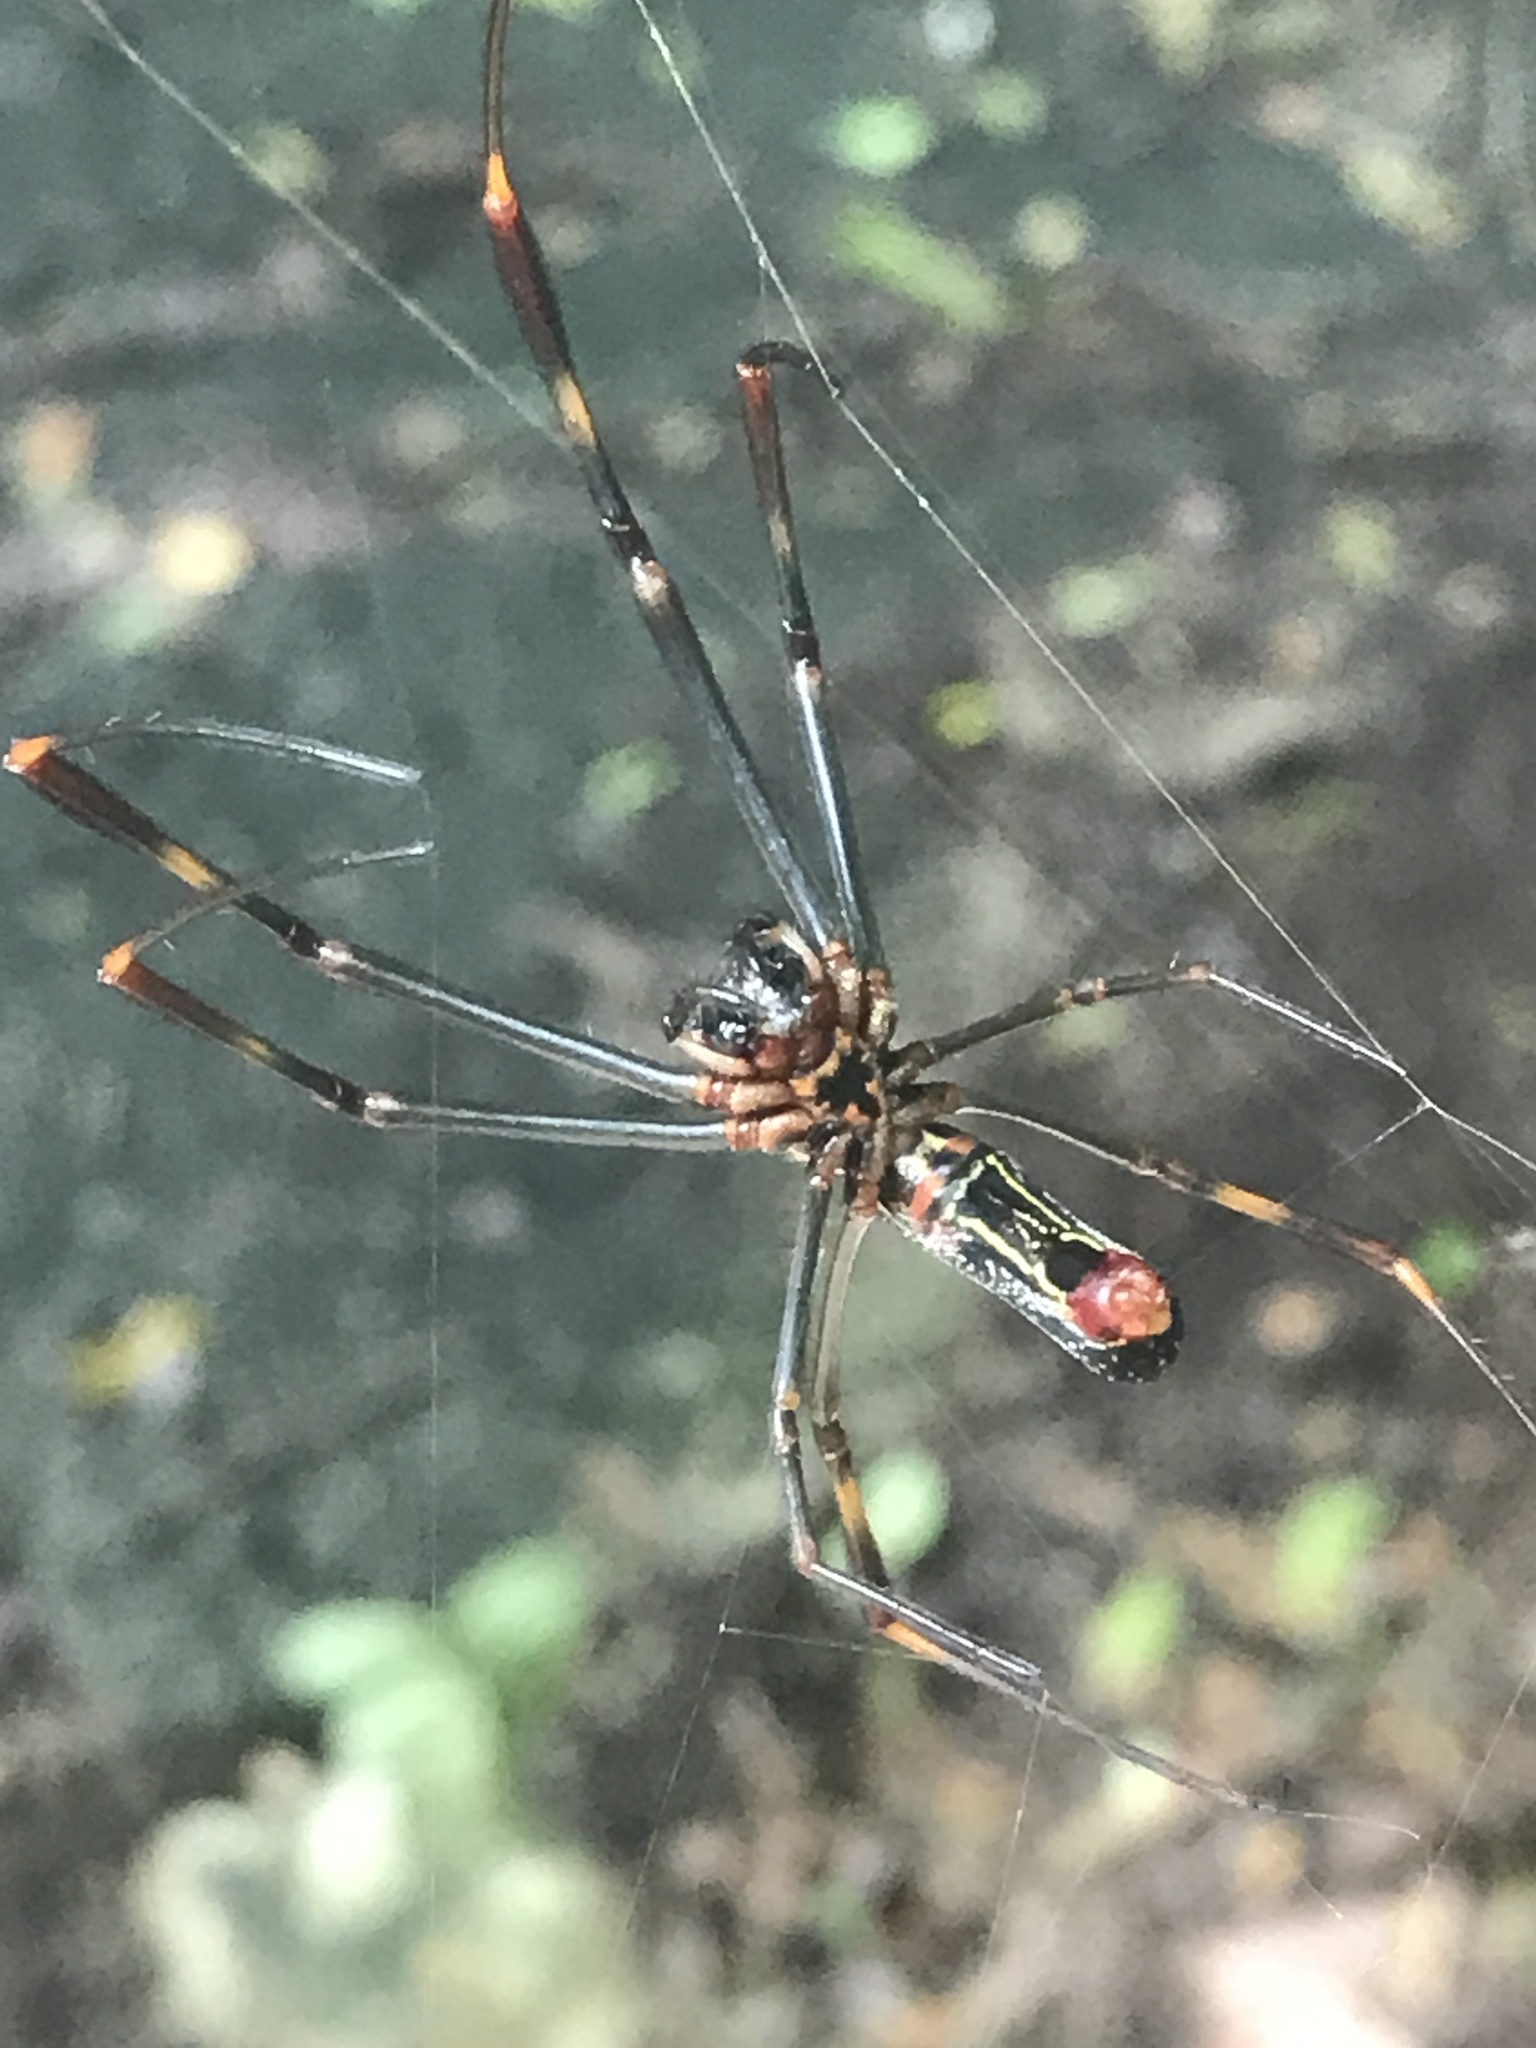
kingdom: Animalia
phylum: Arthropoda
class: Arachnida
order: Araneae
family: Araneidae
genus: Trichonephila
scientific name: Trichonephila clavipes
